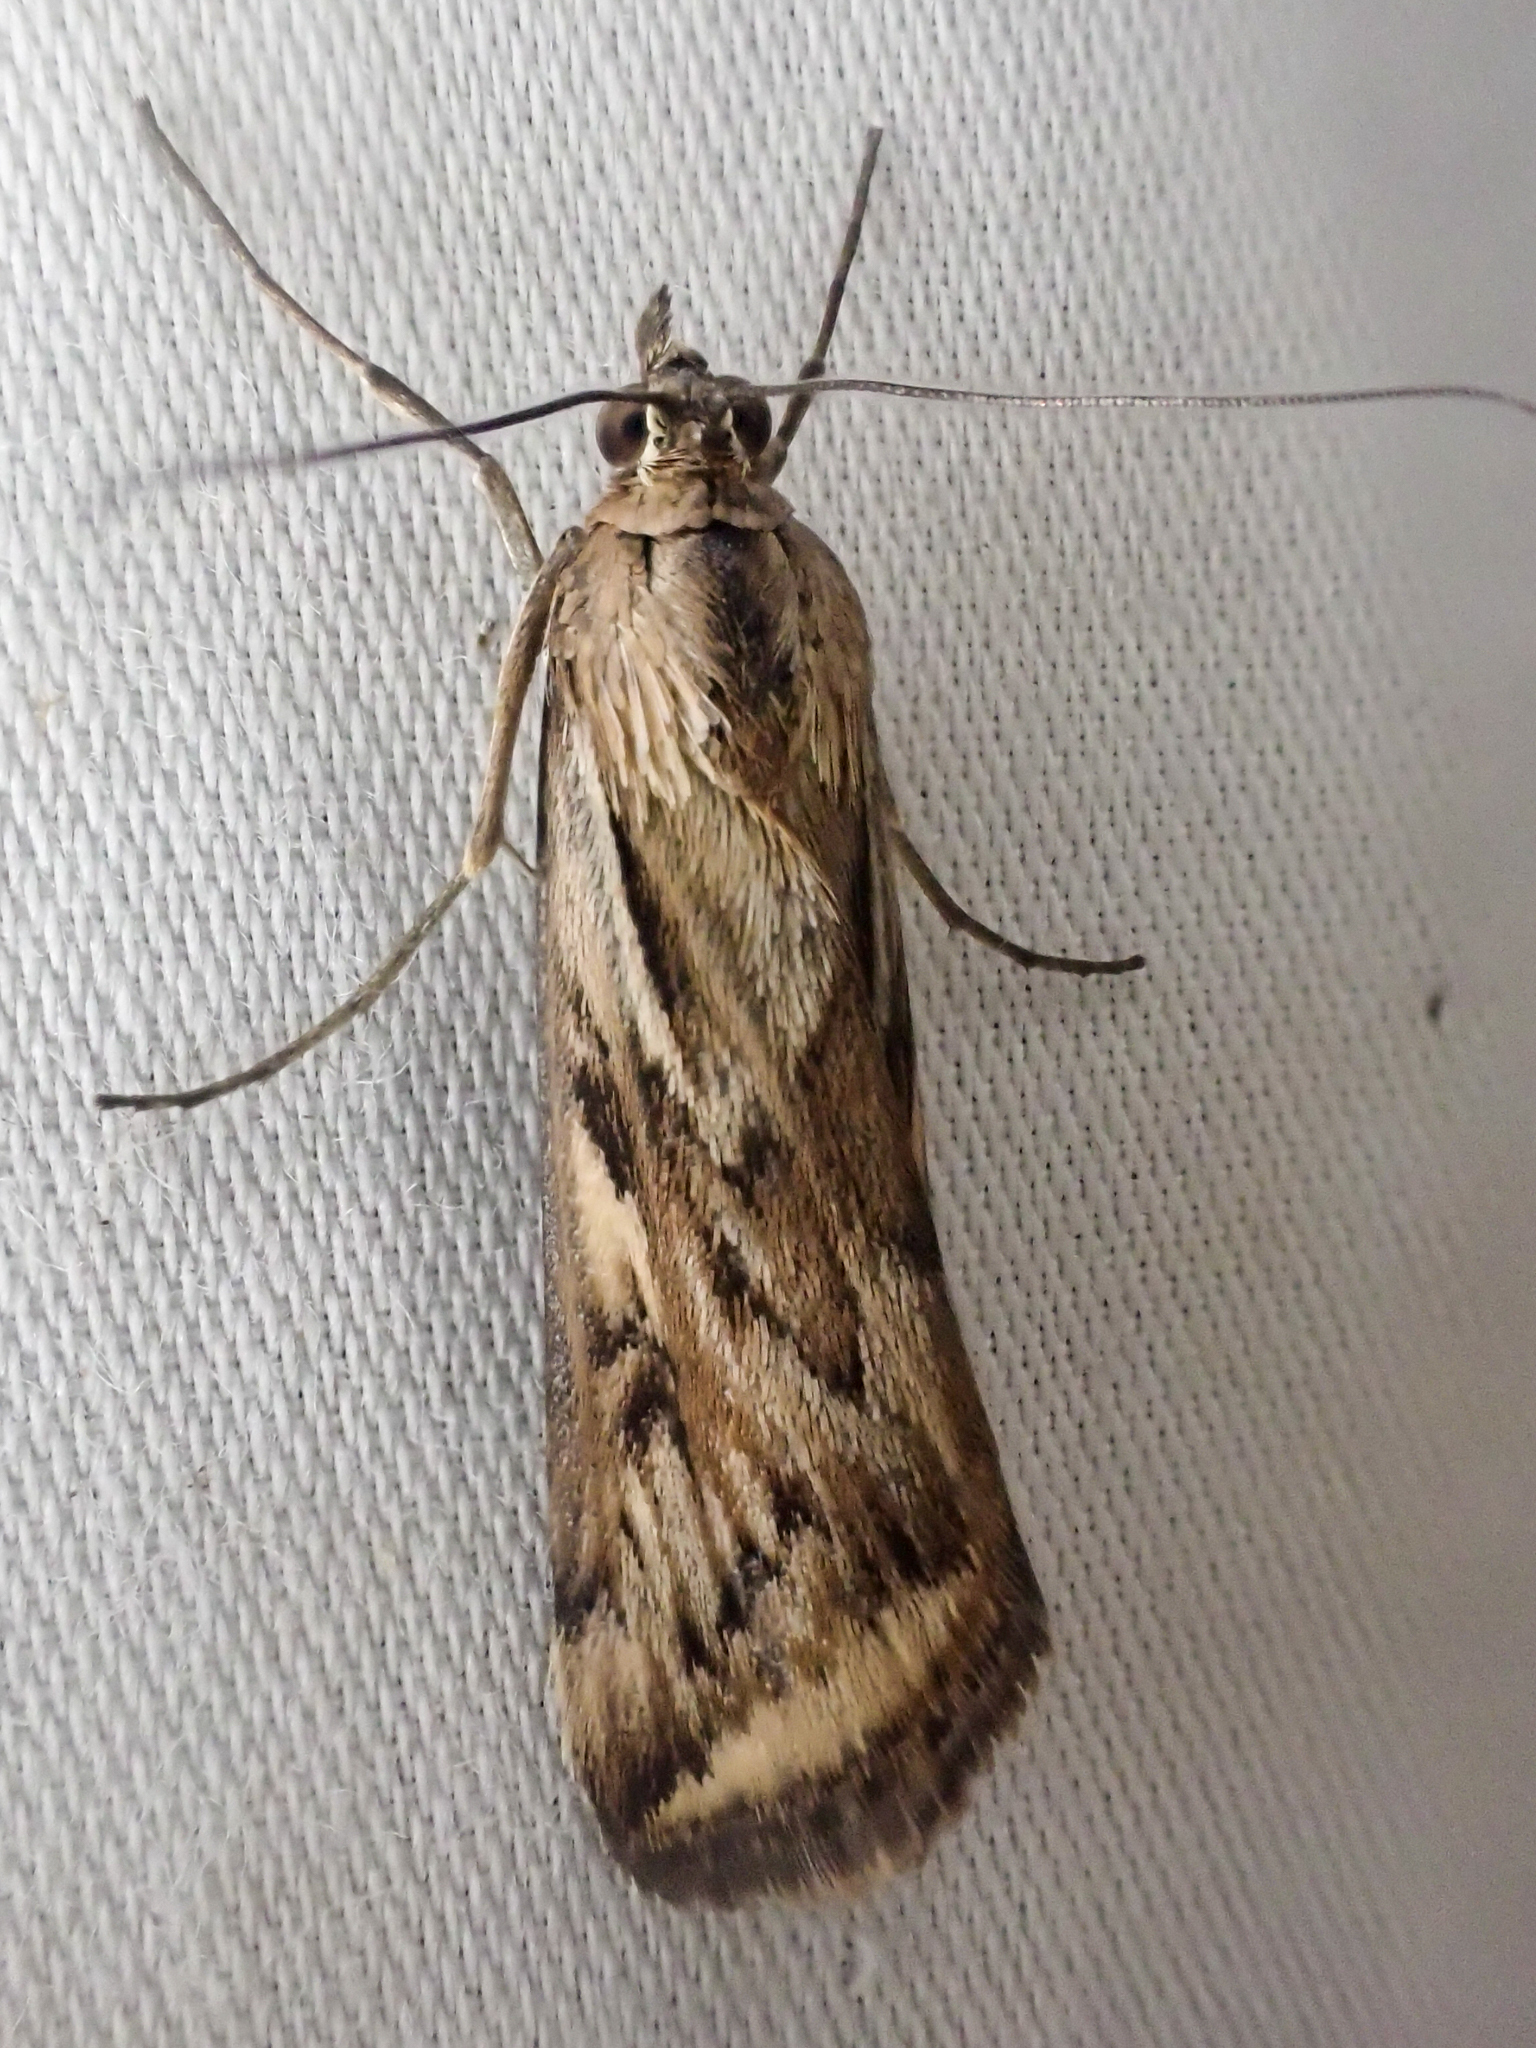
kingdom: Animalia
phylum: Arthropoda
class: Insecta
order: Lepidoptera
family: Crambidae
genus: Loxostege
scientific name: Loxostege cereralis
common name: Alfalfa webworm moth
